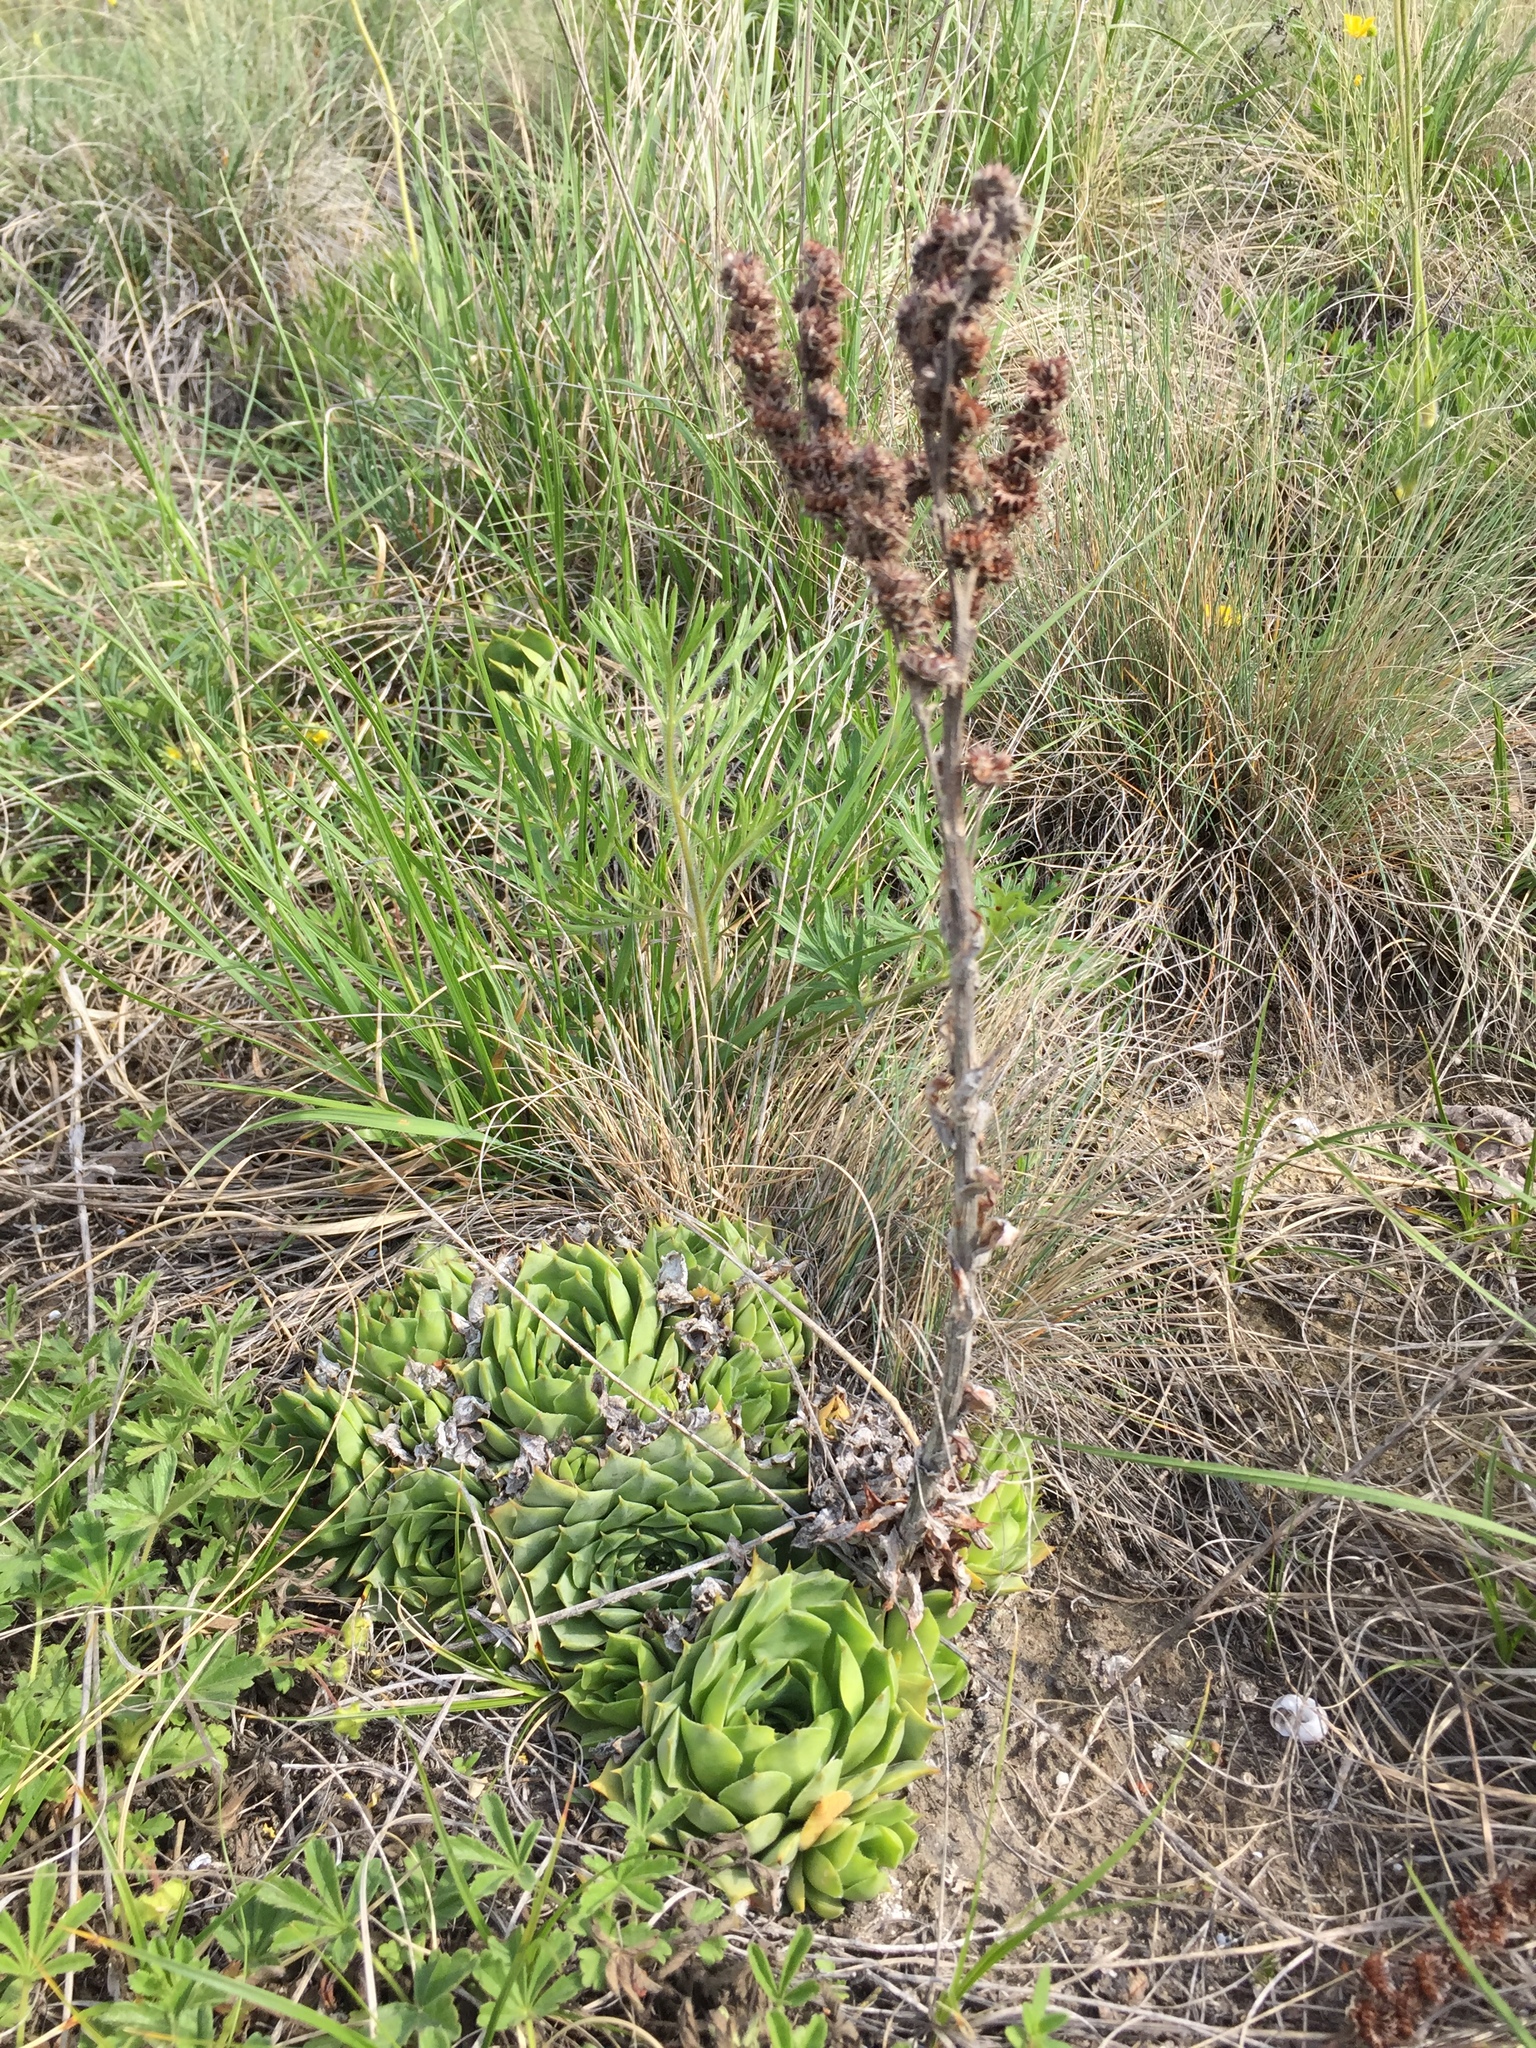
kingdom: Plantae
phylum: Tracheophyta
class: Magnoliopsida
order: Saxifragales
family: Crassulaceae
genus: Sempervivum
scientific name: Sempervivum tectorum
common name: House-leek
